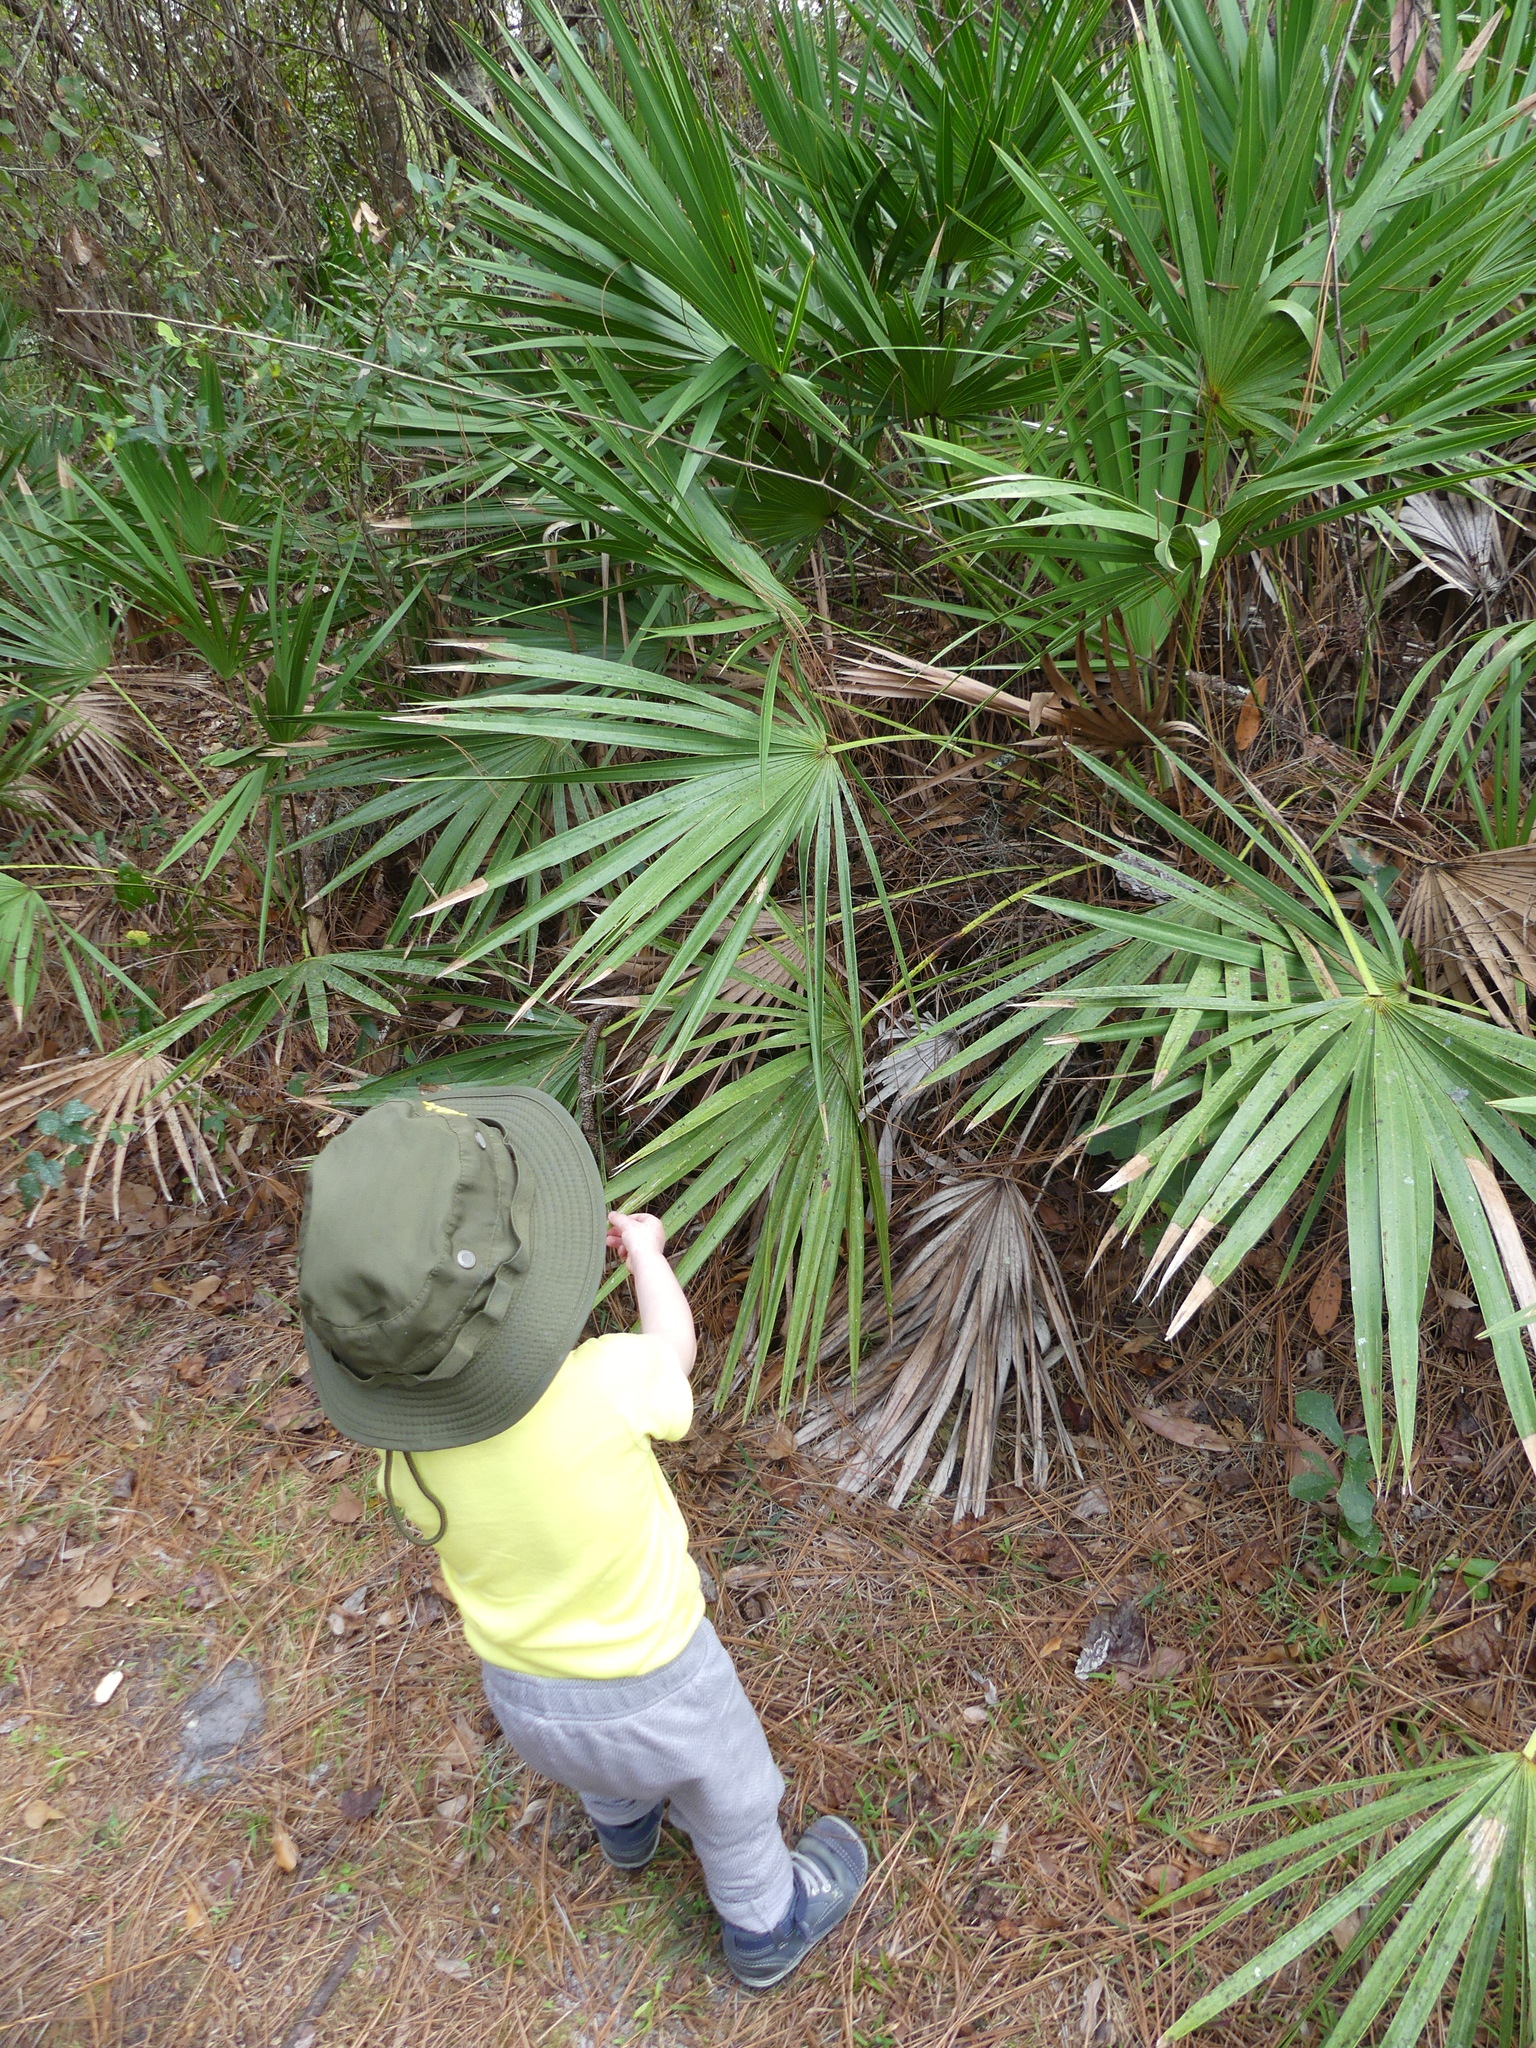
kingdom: Plantae
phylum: Tracheophyta
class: Liliopsida
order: Arecales
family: Arecaceae
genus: Serenoa
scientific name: Serenoa repens
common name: Saw-palmetto
